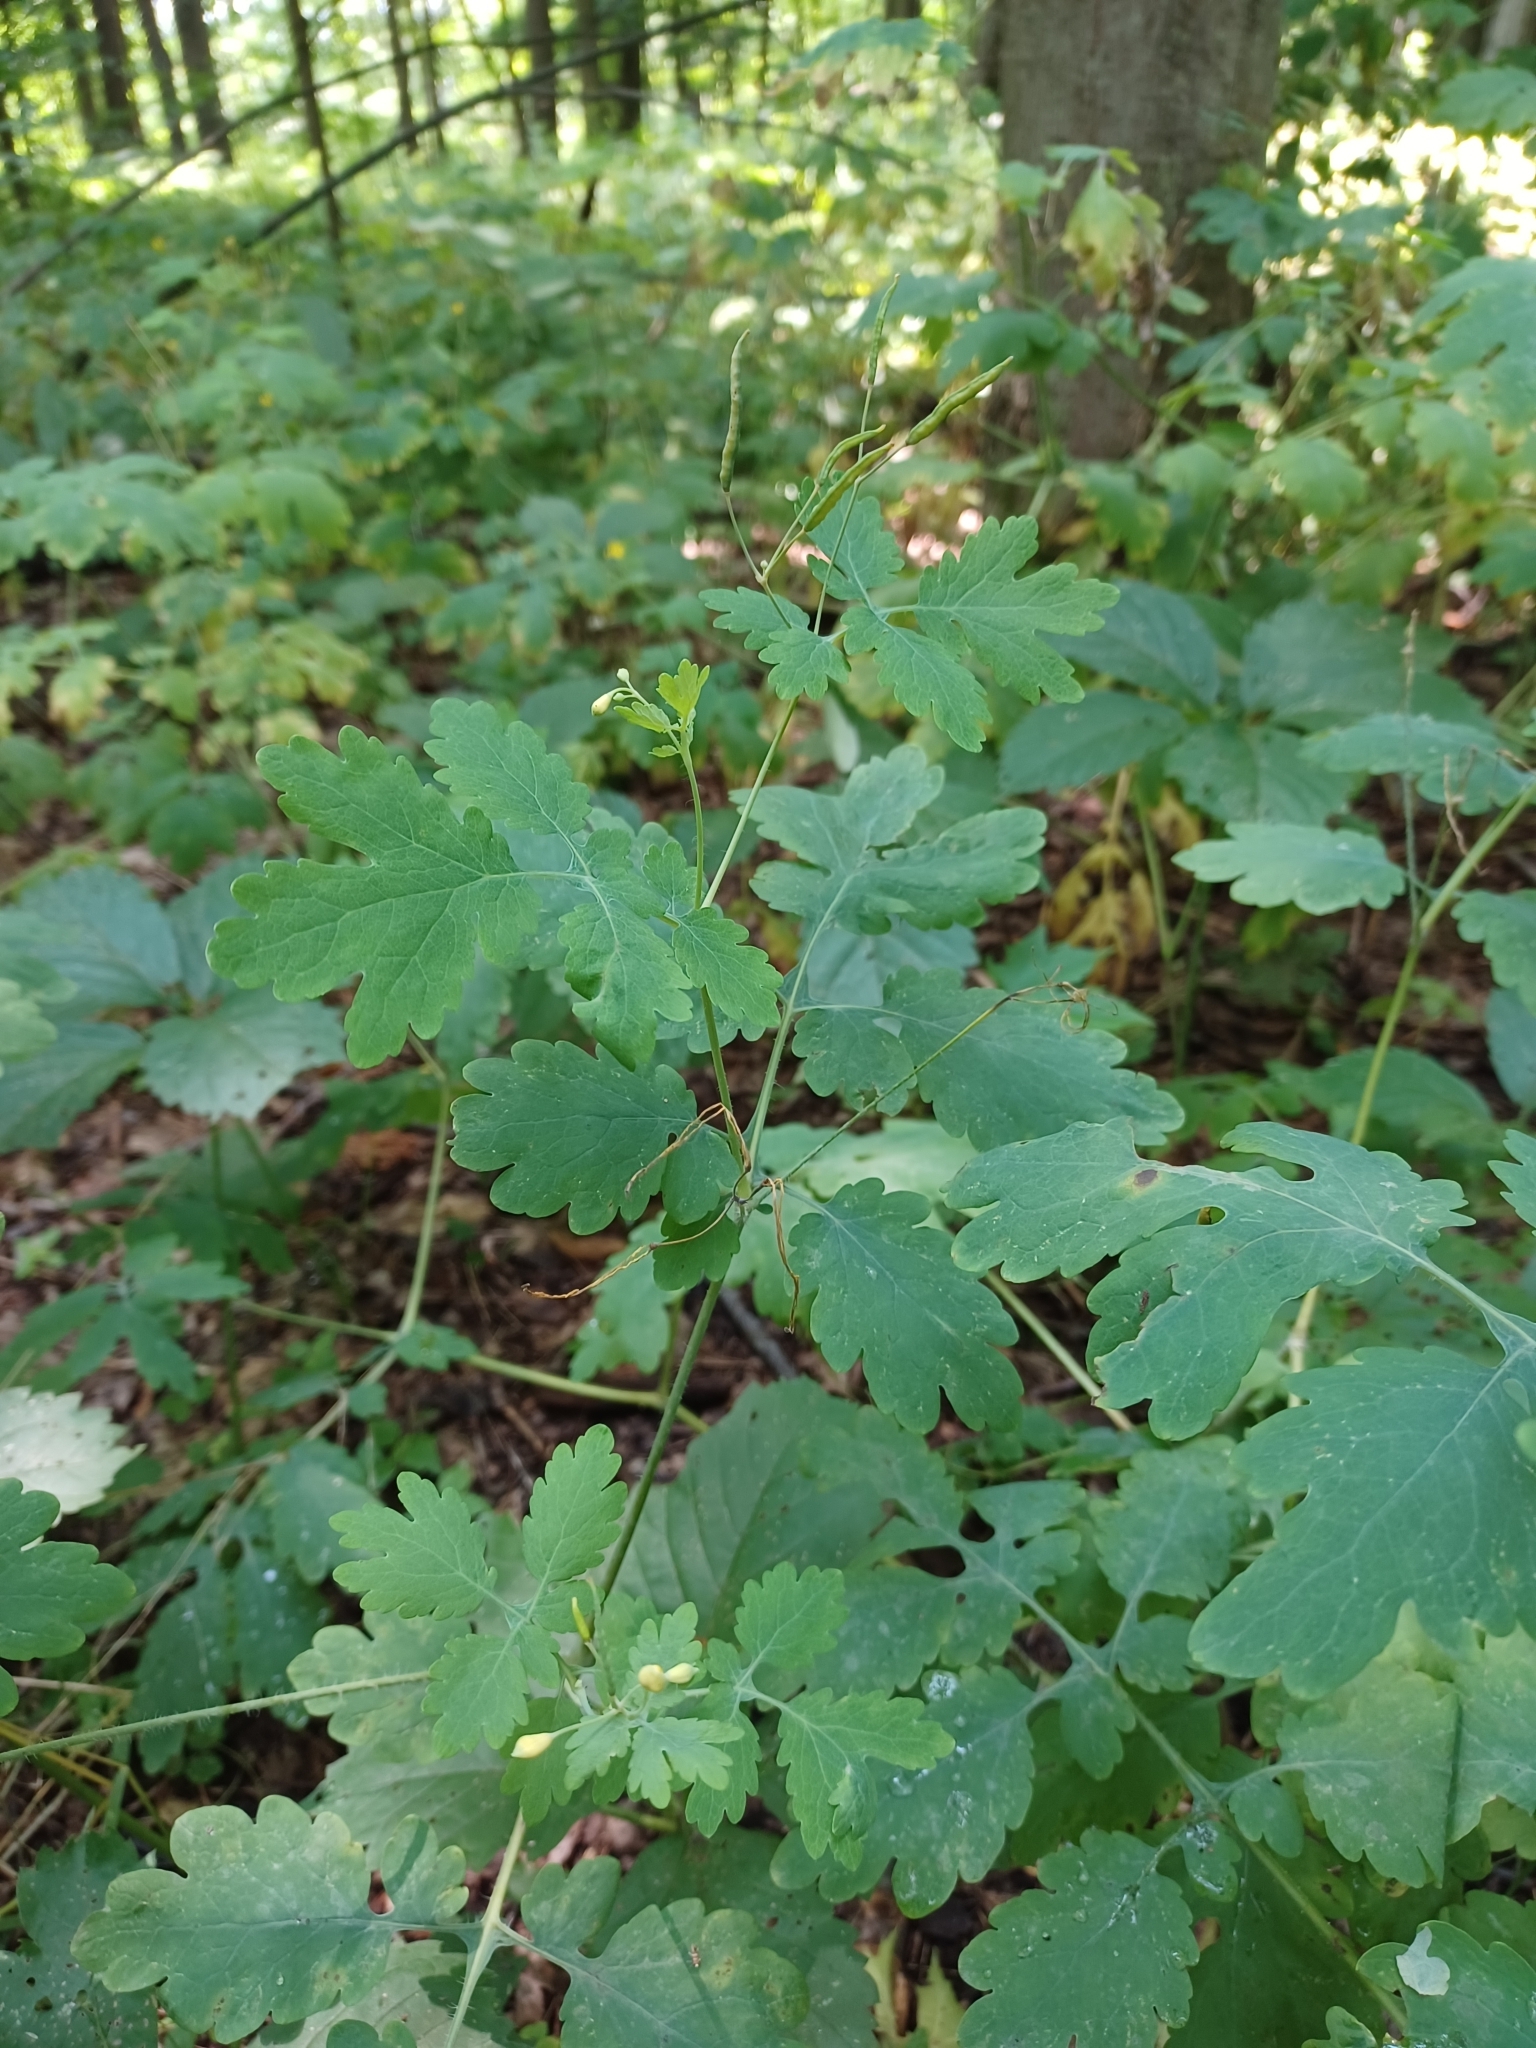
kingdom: Plantae
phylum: Tracheophyta
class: Magnoliopsida
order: Ranunculales
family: Papaveraceae
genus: Chelidonium
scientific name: Chelidonium majus
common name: Greater celandine
